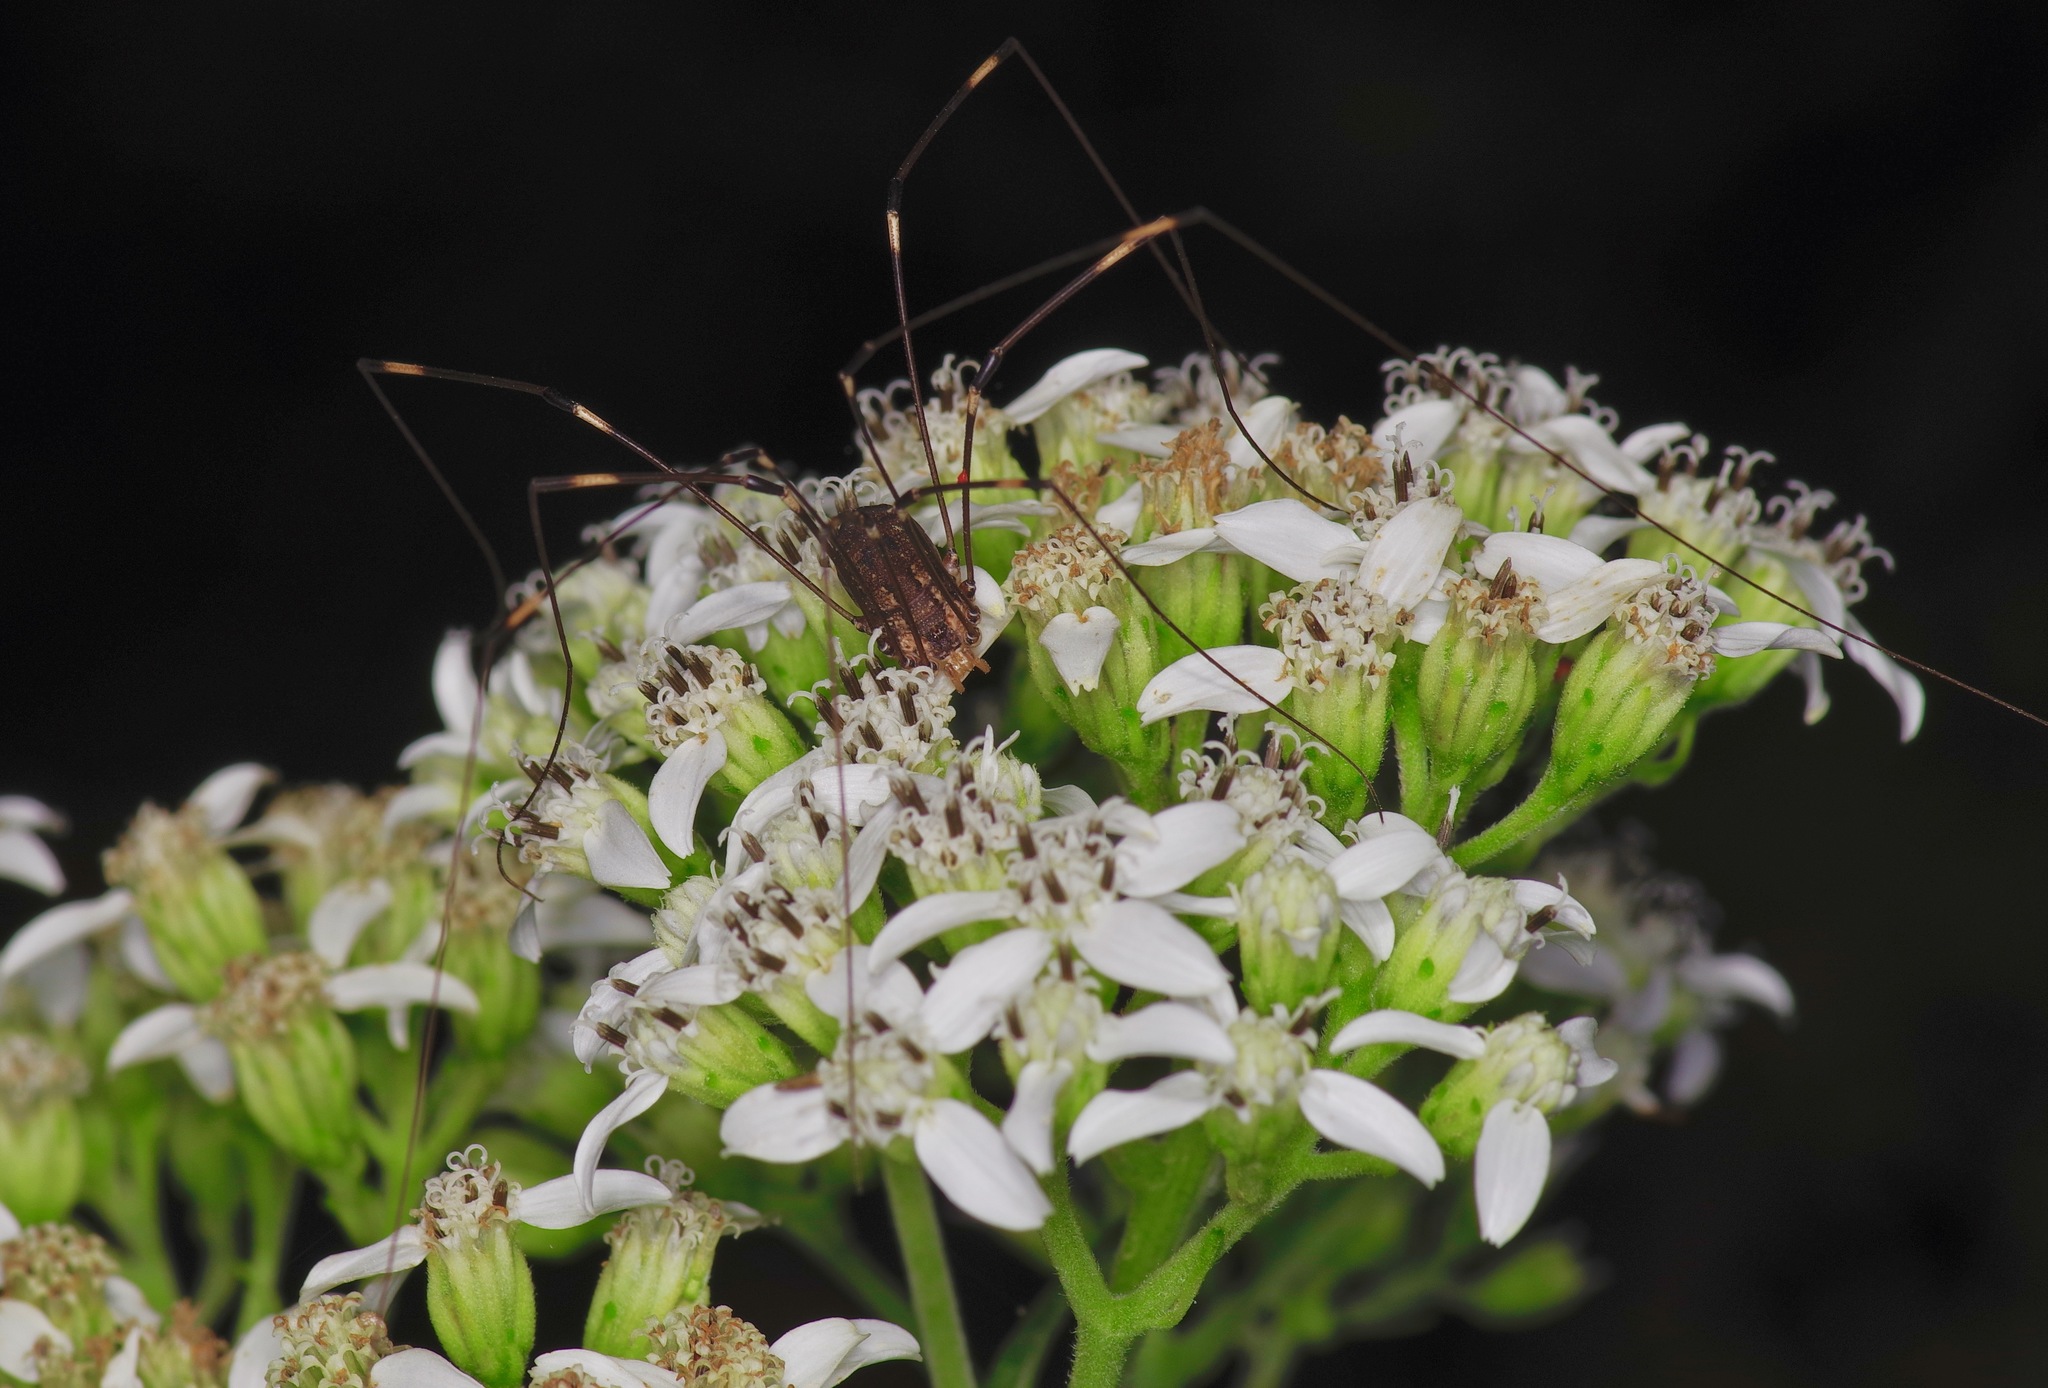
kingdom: Animalia
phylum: Arthropoda
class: Arachnida
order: Opiliones
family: Sclerosomatidae
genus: Leiobunum
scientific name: Leiobunum townsendi
